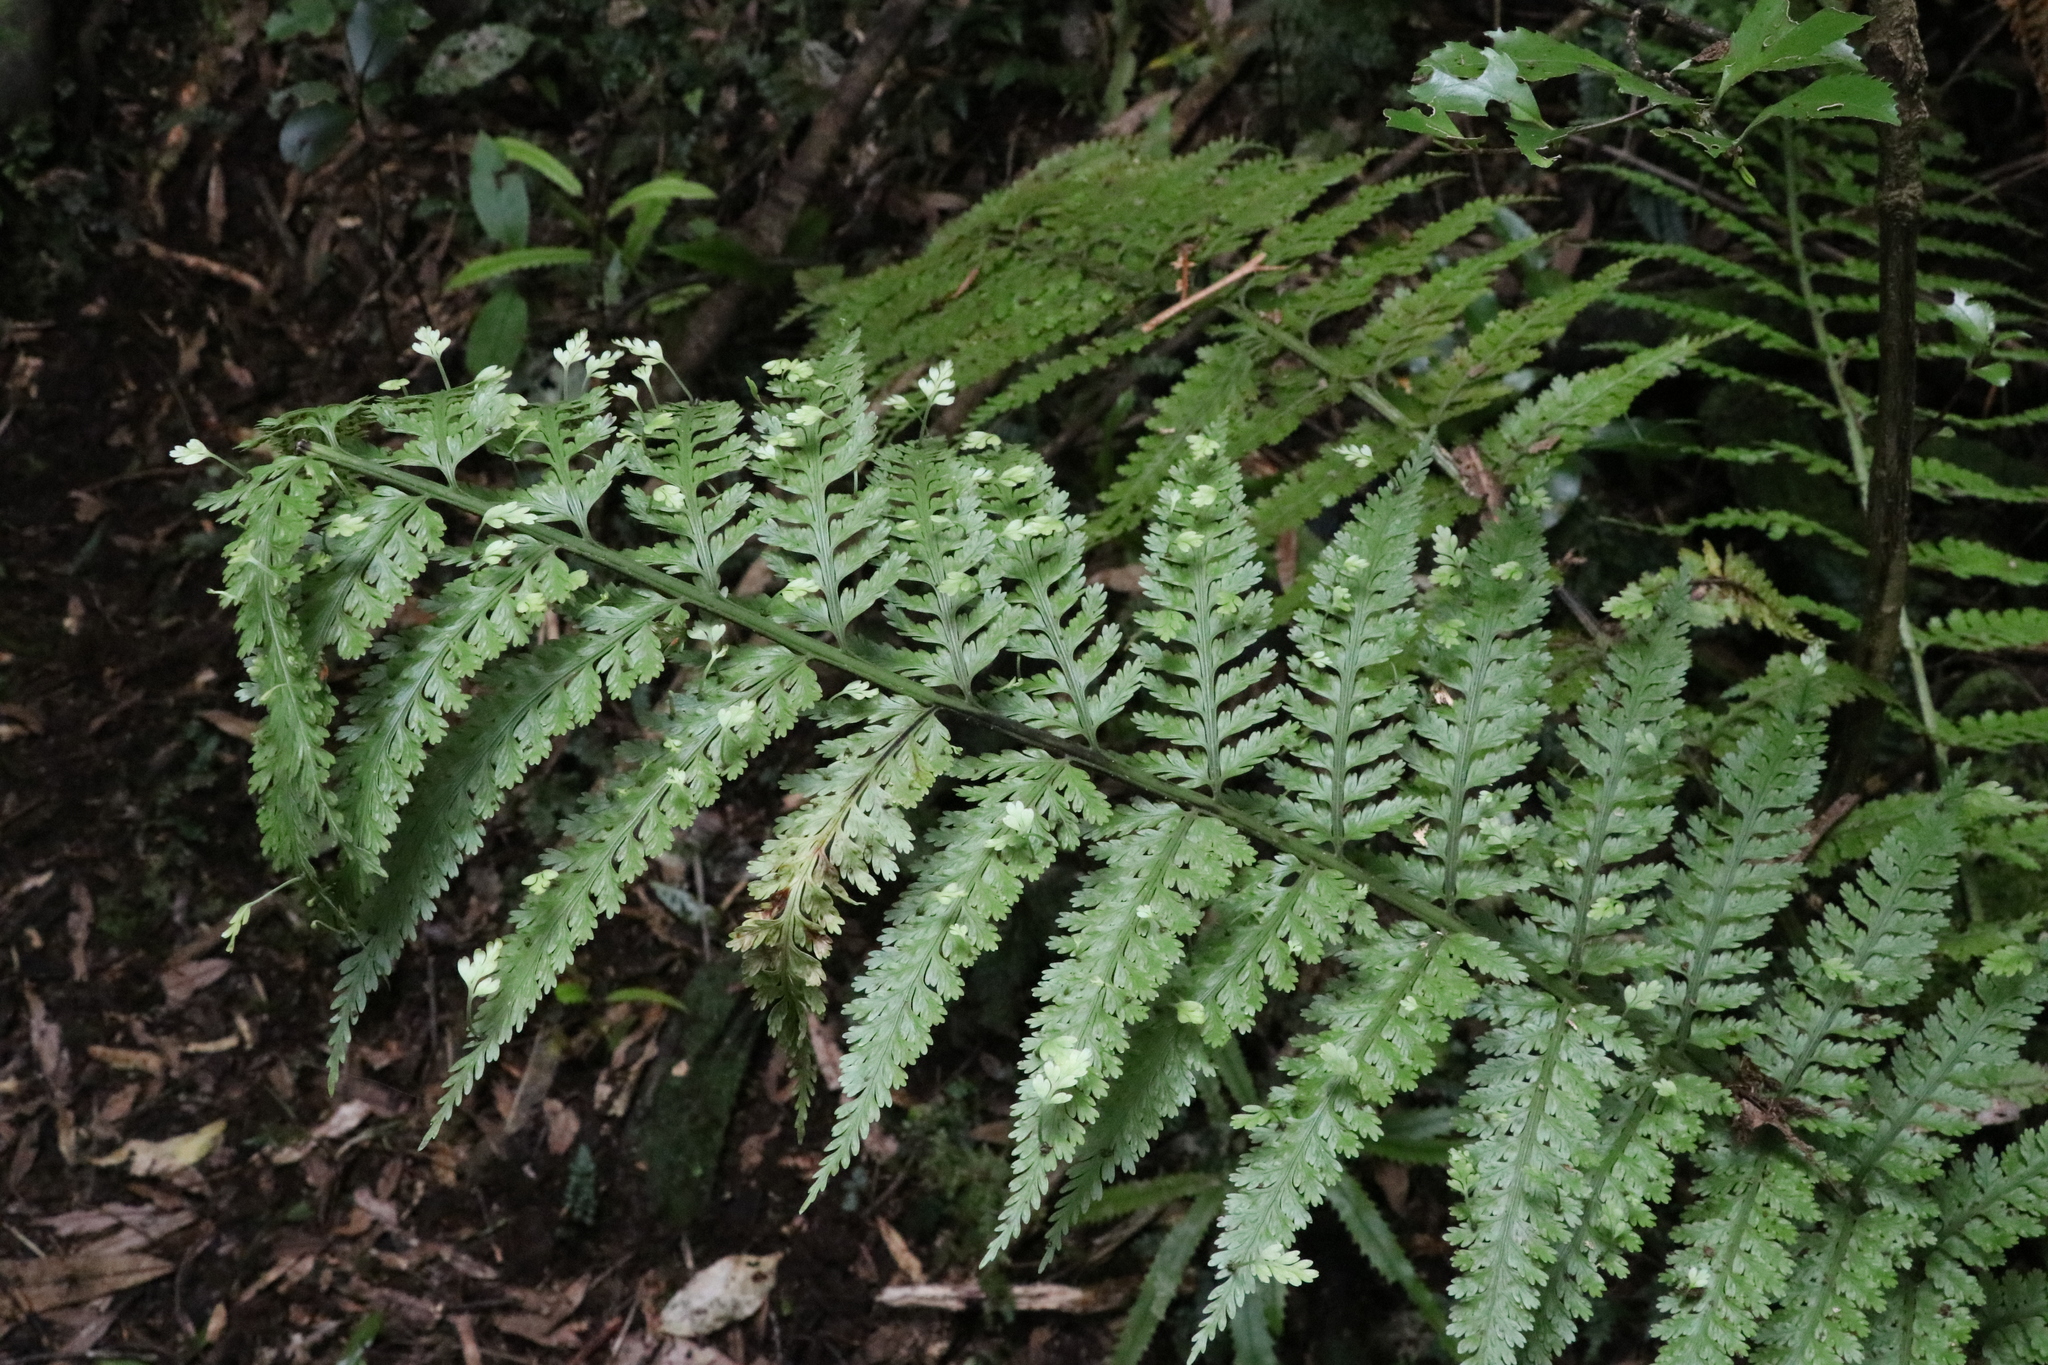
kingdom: Plantae
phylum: Tracheophyta
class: Polypodiopsida
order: Polypodiales
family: Aspleniaceae
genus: Asplenium
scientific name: Asplenium bulbiferum
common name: Mother fern
